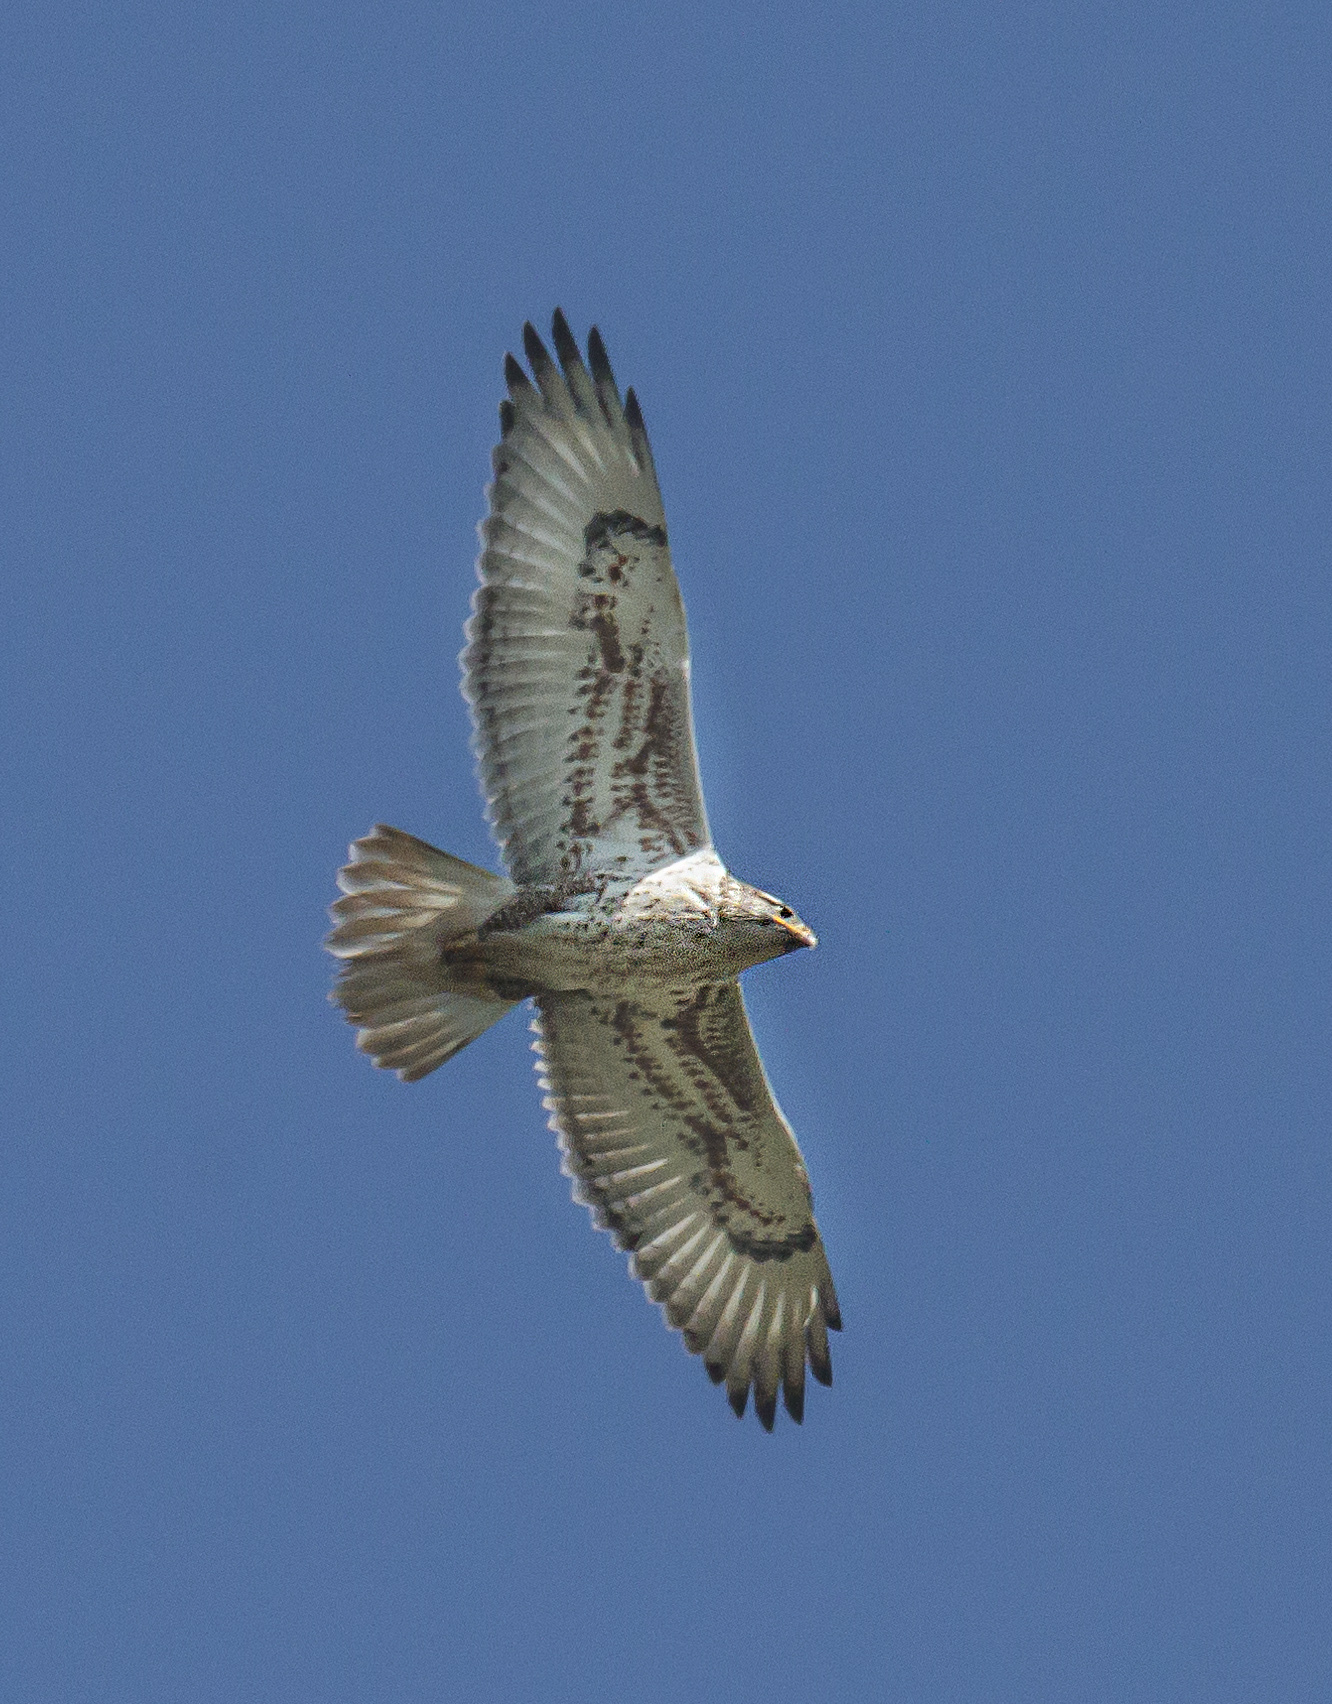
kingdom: Animalia
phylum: Chordata
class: Aves
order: Accipitriformes
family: Accipitridae
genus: Buteo
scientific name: Buteo regalis
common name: Ferruginous hawk
